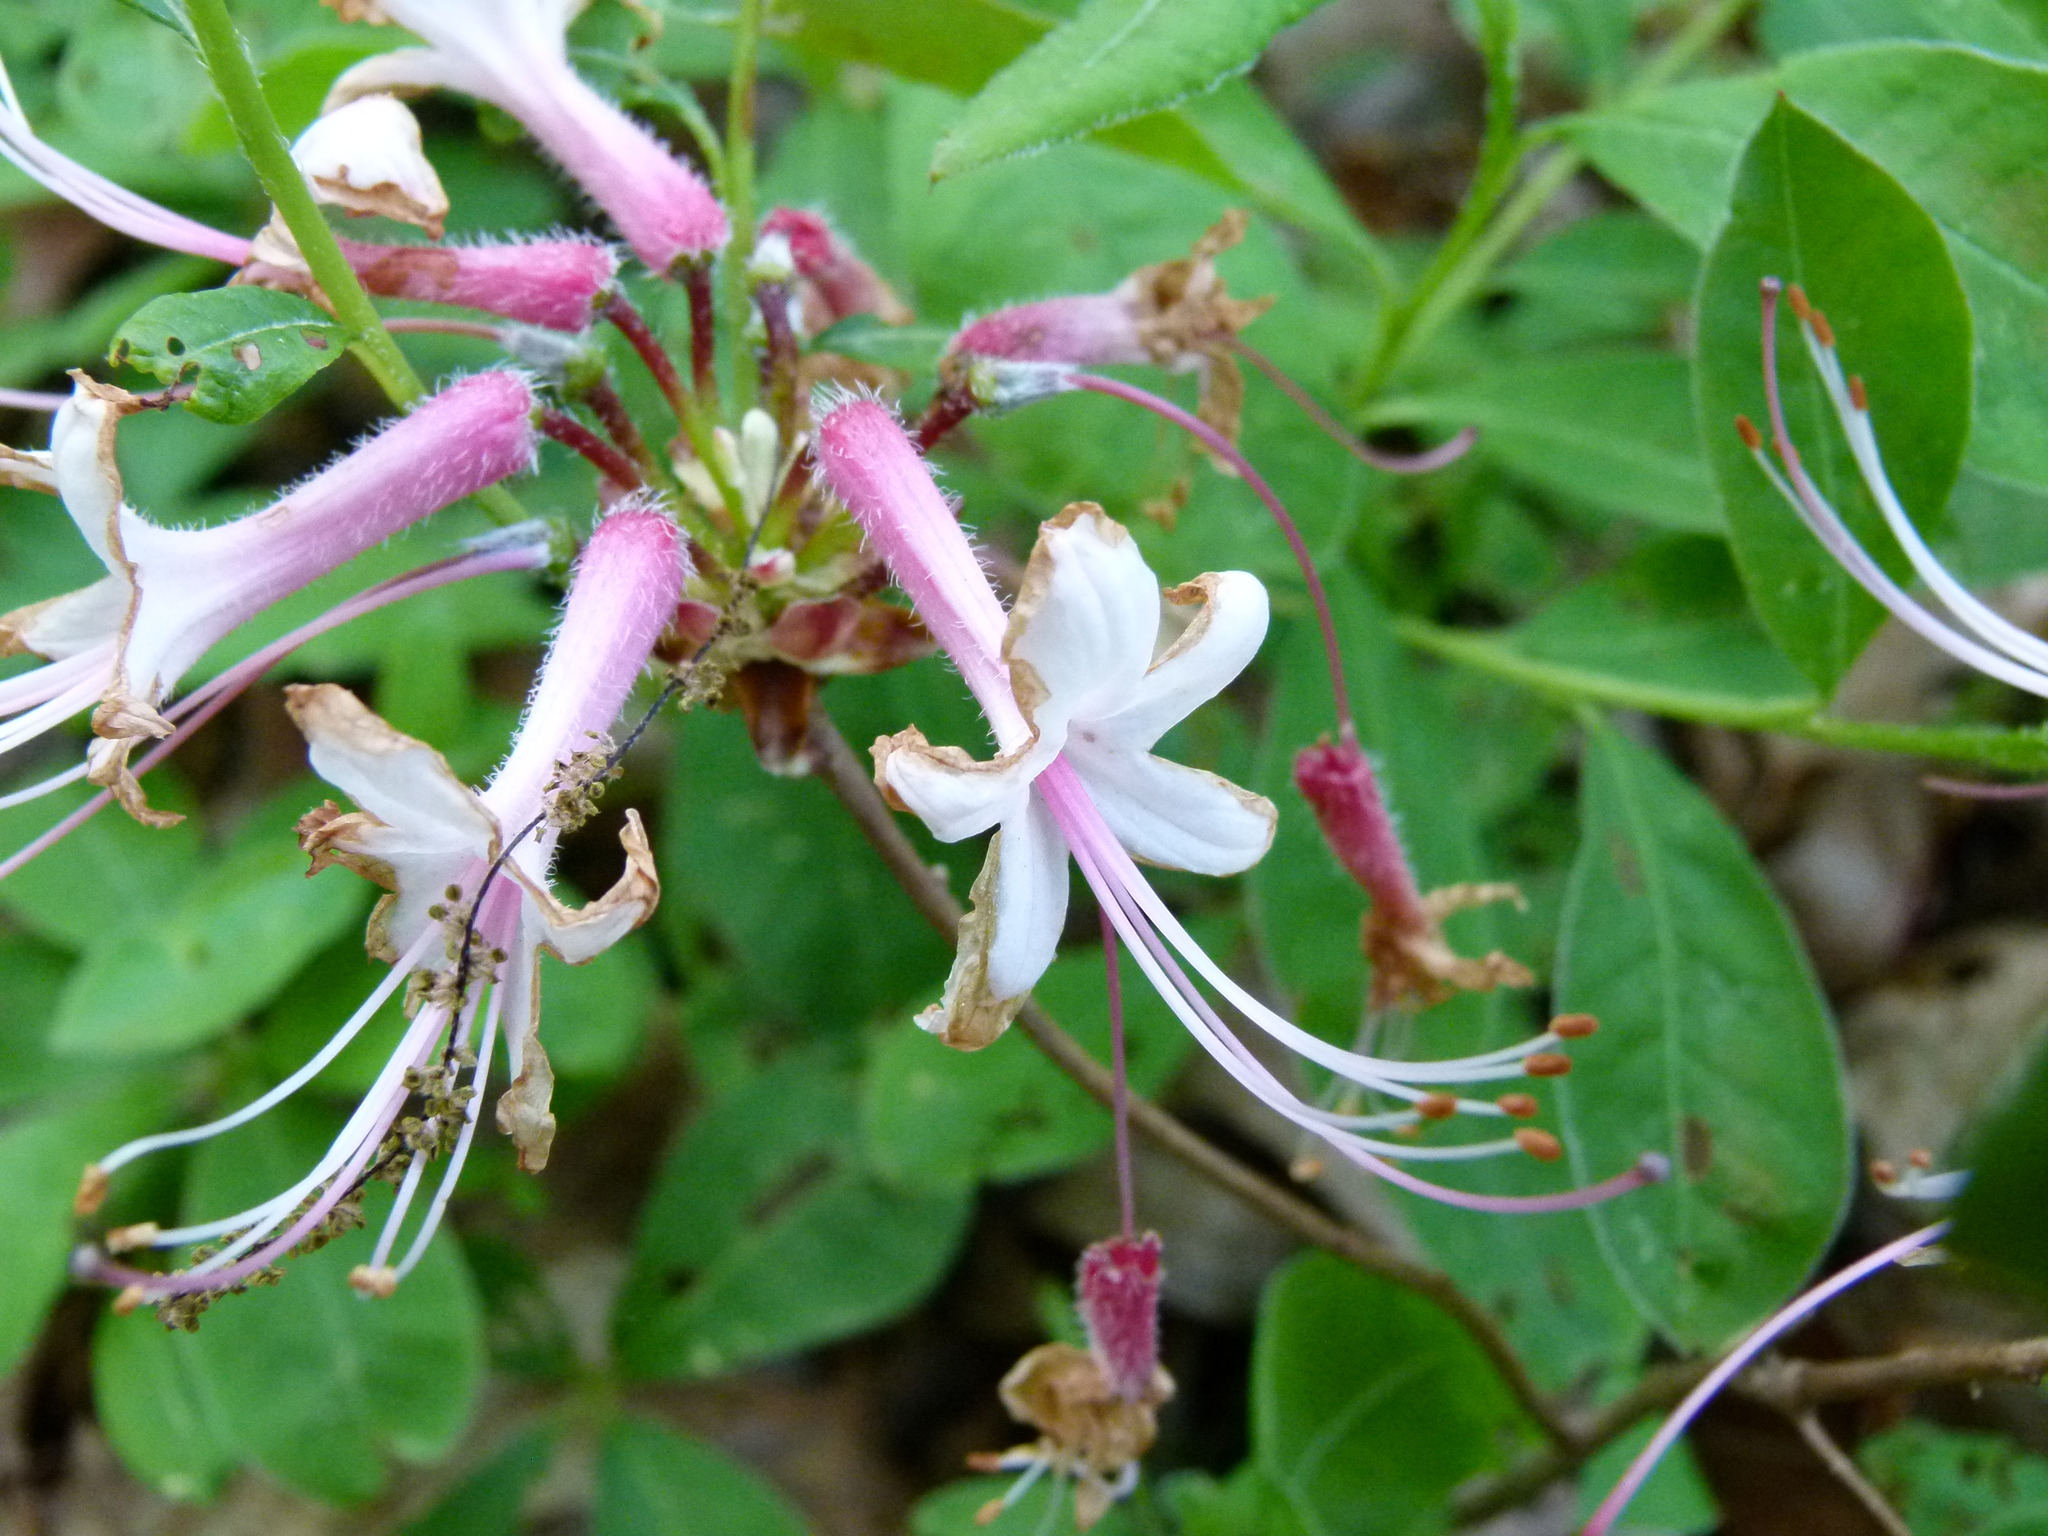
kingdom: Plantae
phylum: Tracheophyta
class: Magnoliopsida
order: Ericales
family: Ericaceae
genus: Rhododendron
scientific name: Rhododendron periclymenoides
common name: Election-pink
